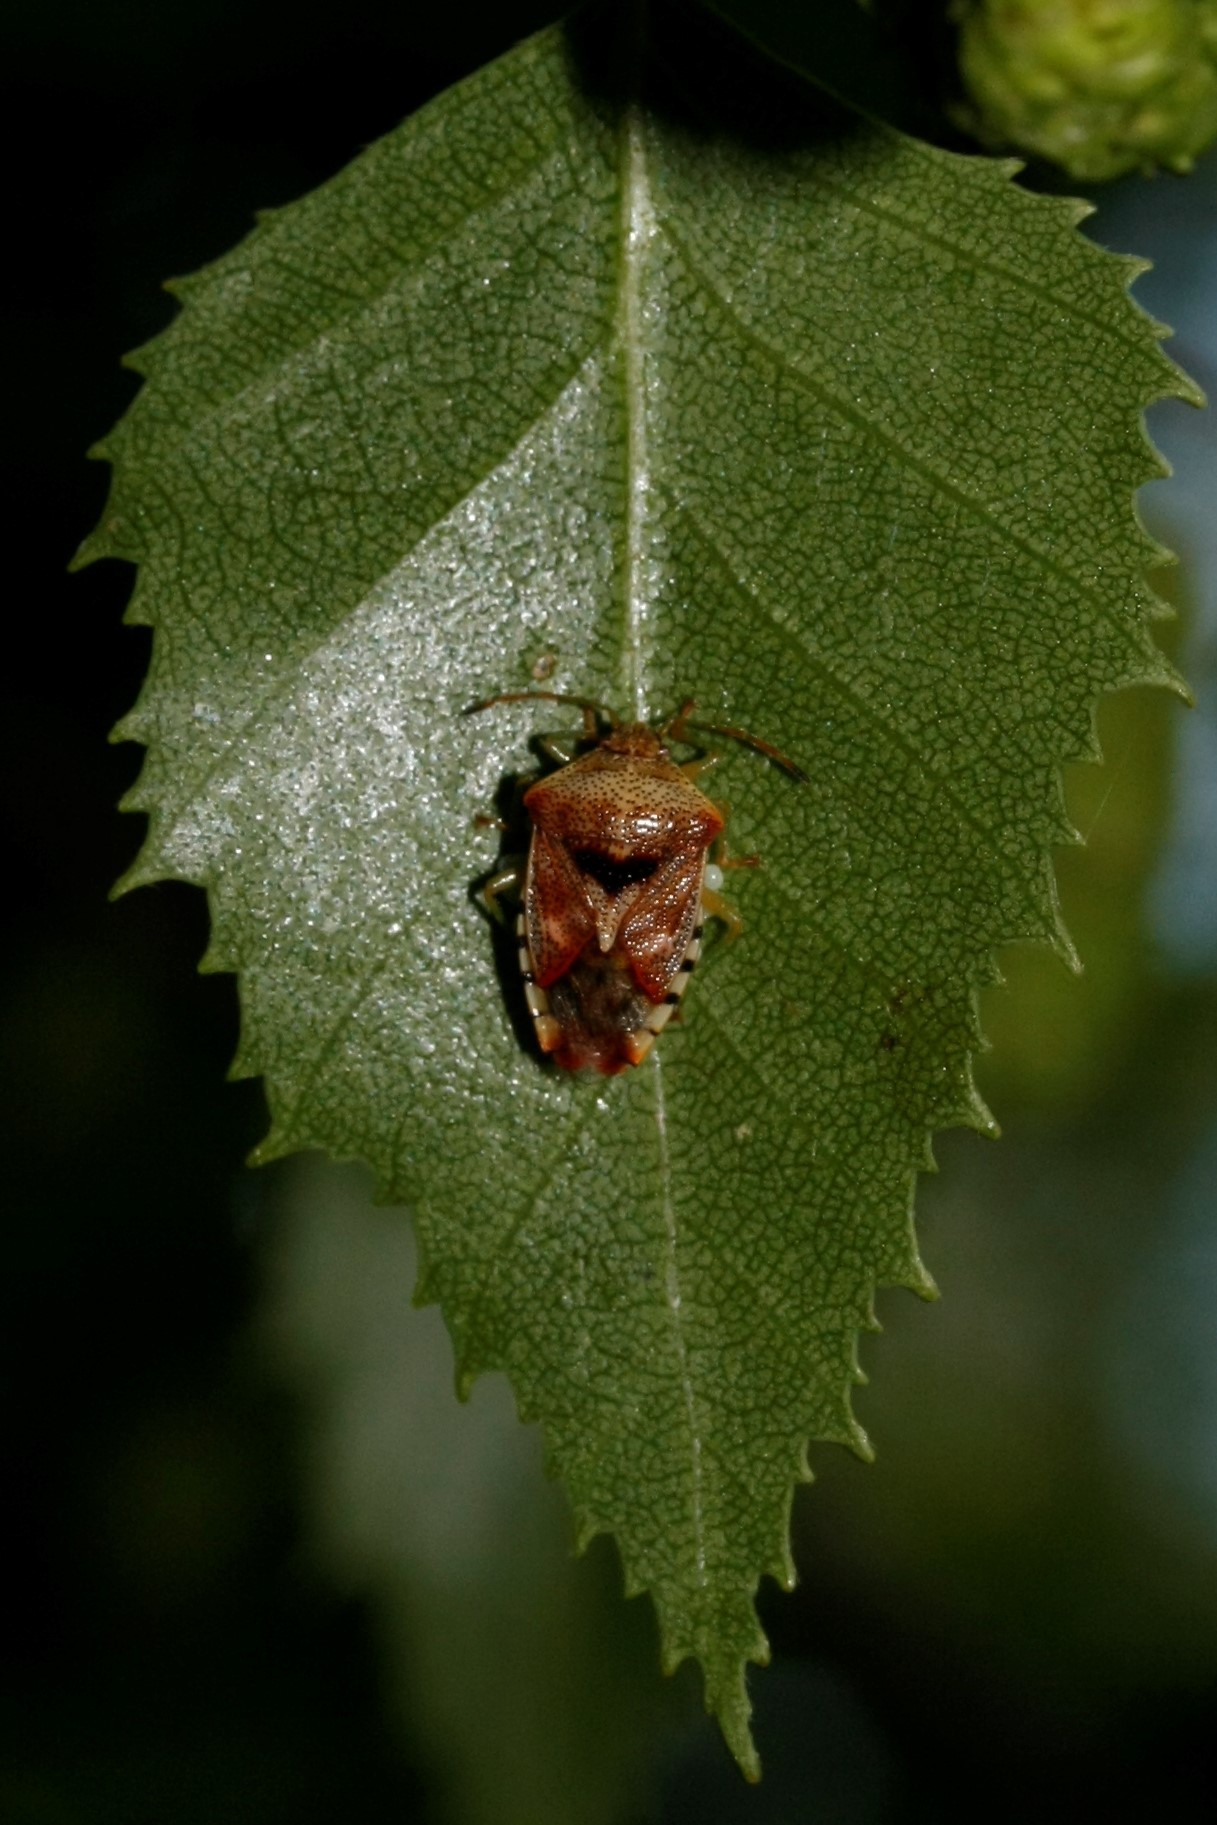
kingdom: Animalia
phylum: Arthropoda
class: Insecta
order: Hemiptera
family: Acanthosomatidae
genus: Elasmucha
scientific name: Elasmucha grisea
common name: Parent bug
